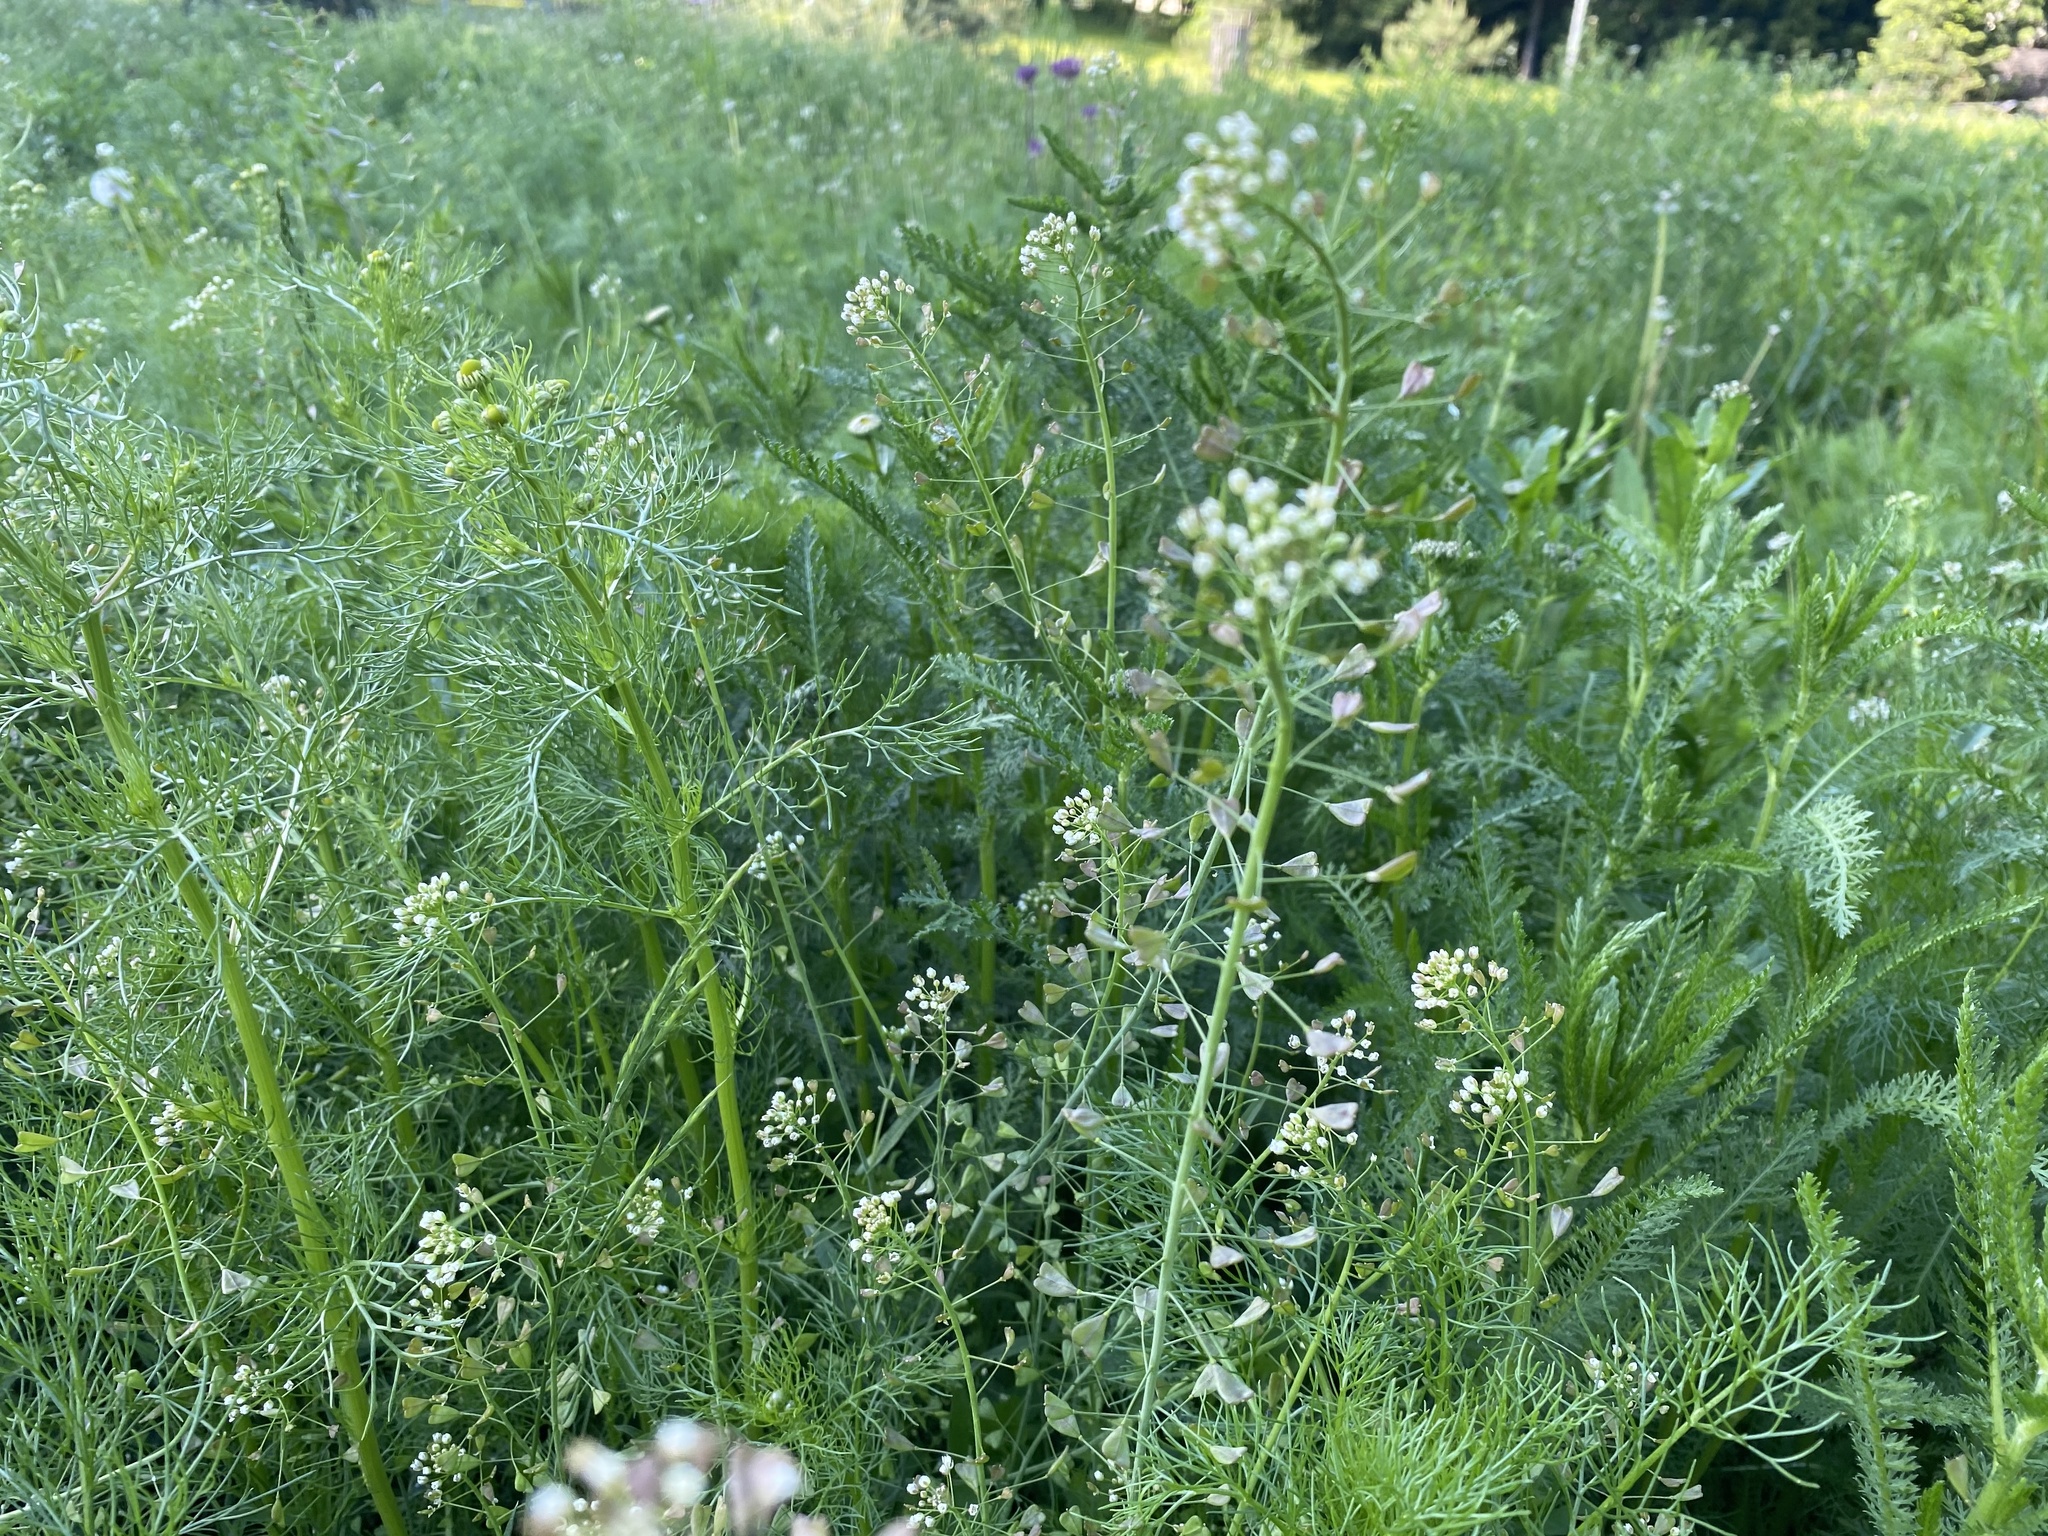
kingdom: Plantae
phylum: Tracheophyta
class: Magnoliopsida
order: Brassicales
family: Brassicaceae
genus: Capsella
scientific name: Capsella bursa-pastoris
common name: Shepherd's purse
